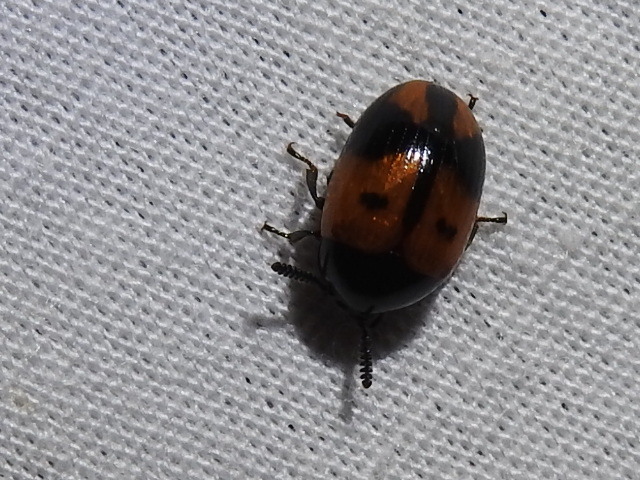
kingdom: Animalia
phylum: Arthropoda
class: Insecta
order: Coleoptera
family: Tenebrionidae
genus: Diaperis
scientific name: Diaperis maculata
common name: Darkling beetle
